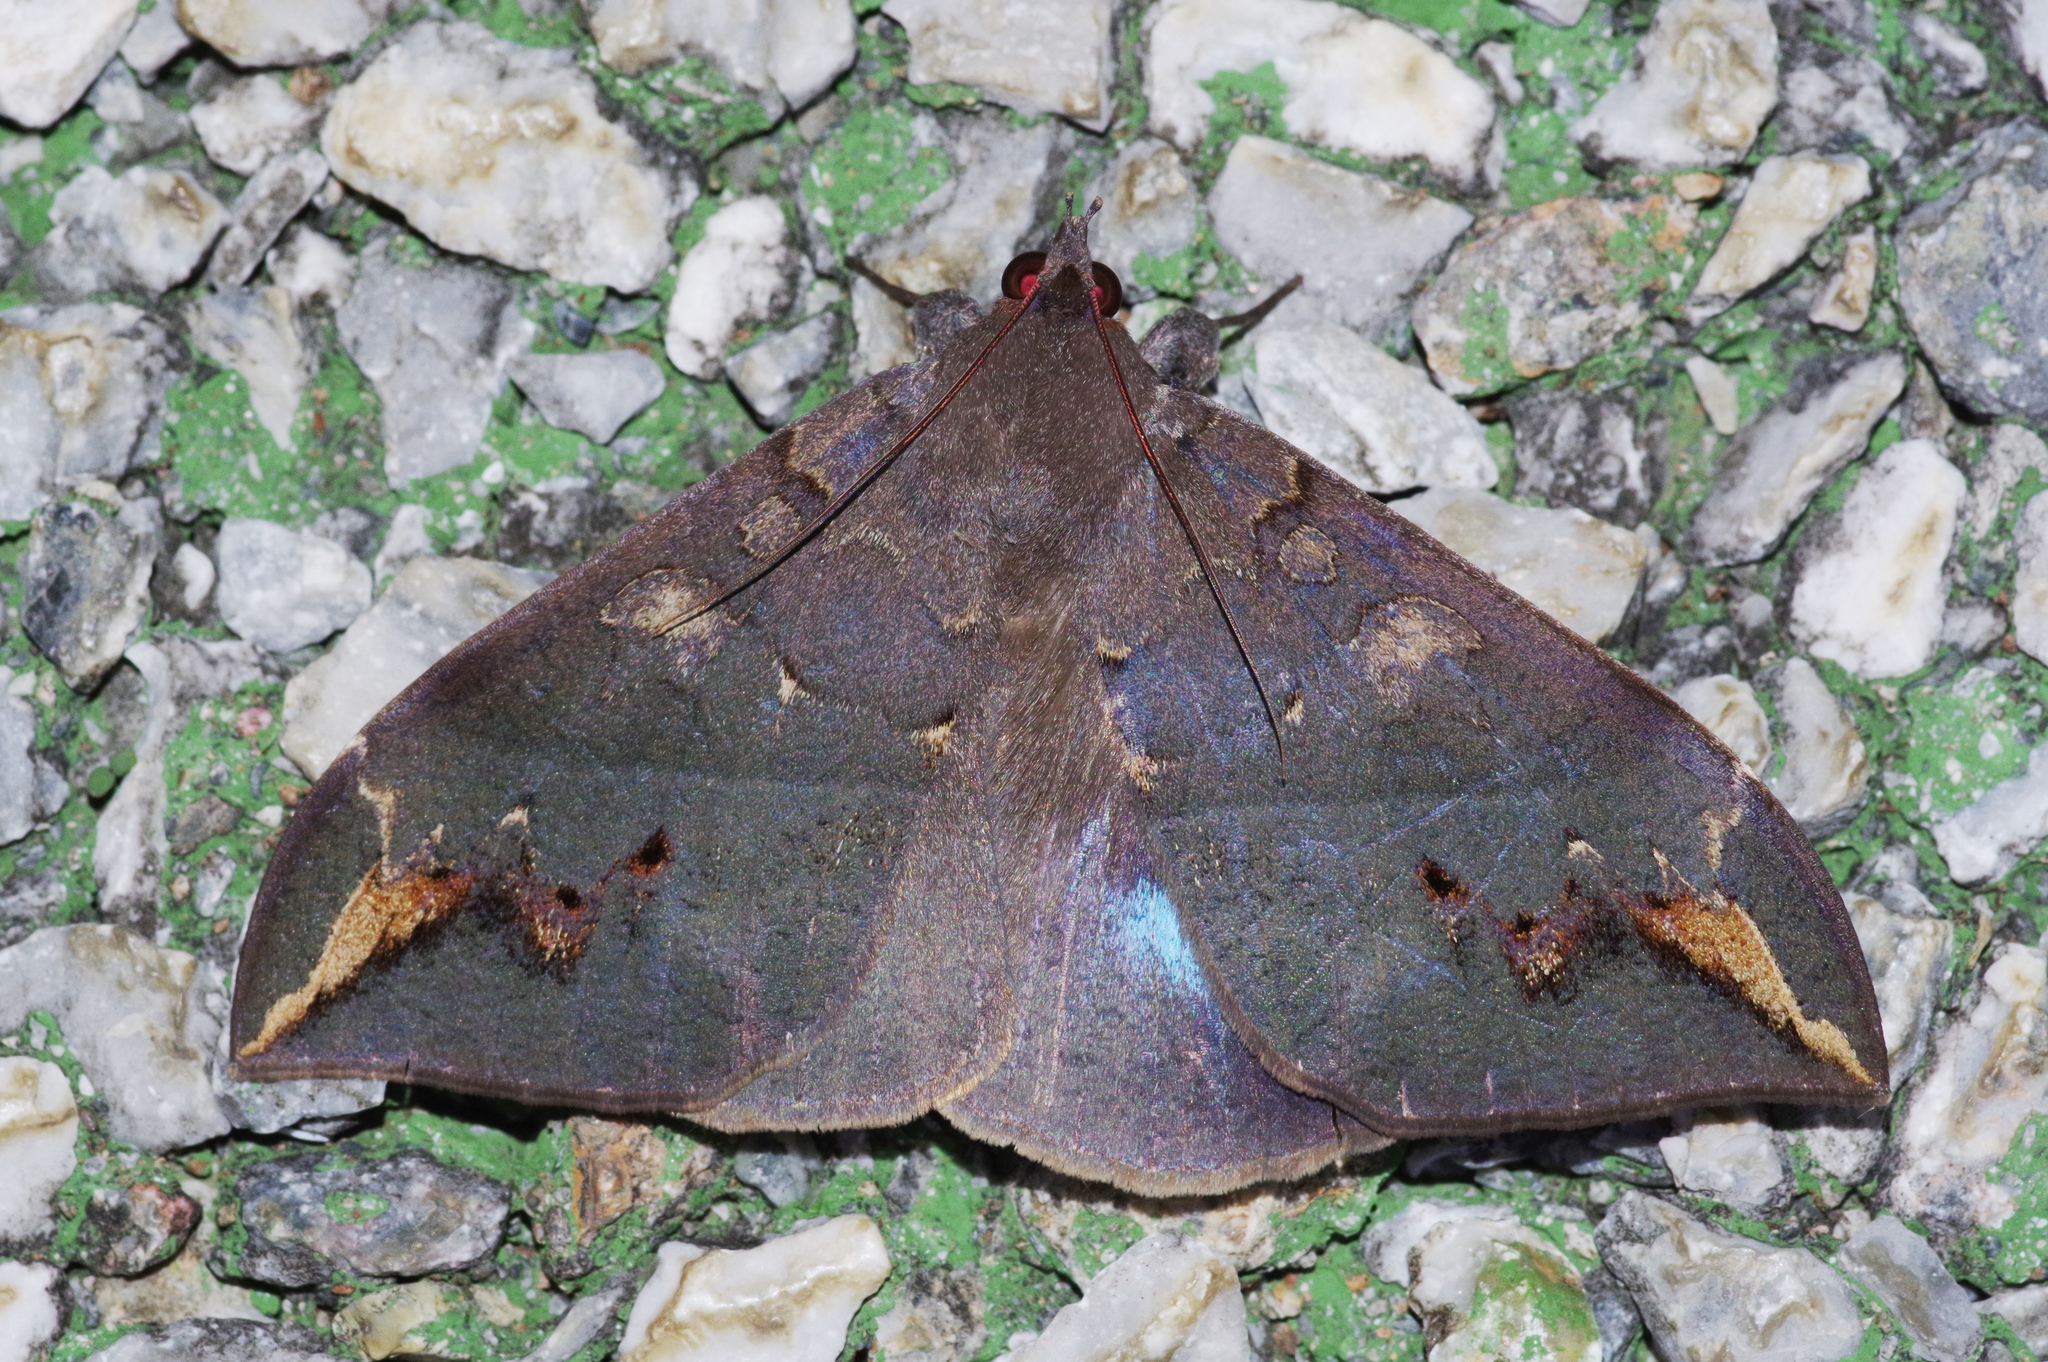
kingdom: Animalia
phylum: Arthropoda
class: Insecta
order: Lepidoptera
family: Erebidae
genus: Ischyja
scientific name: Ischyja ferrifracta
